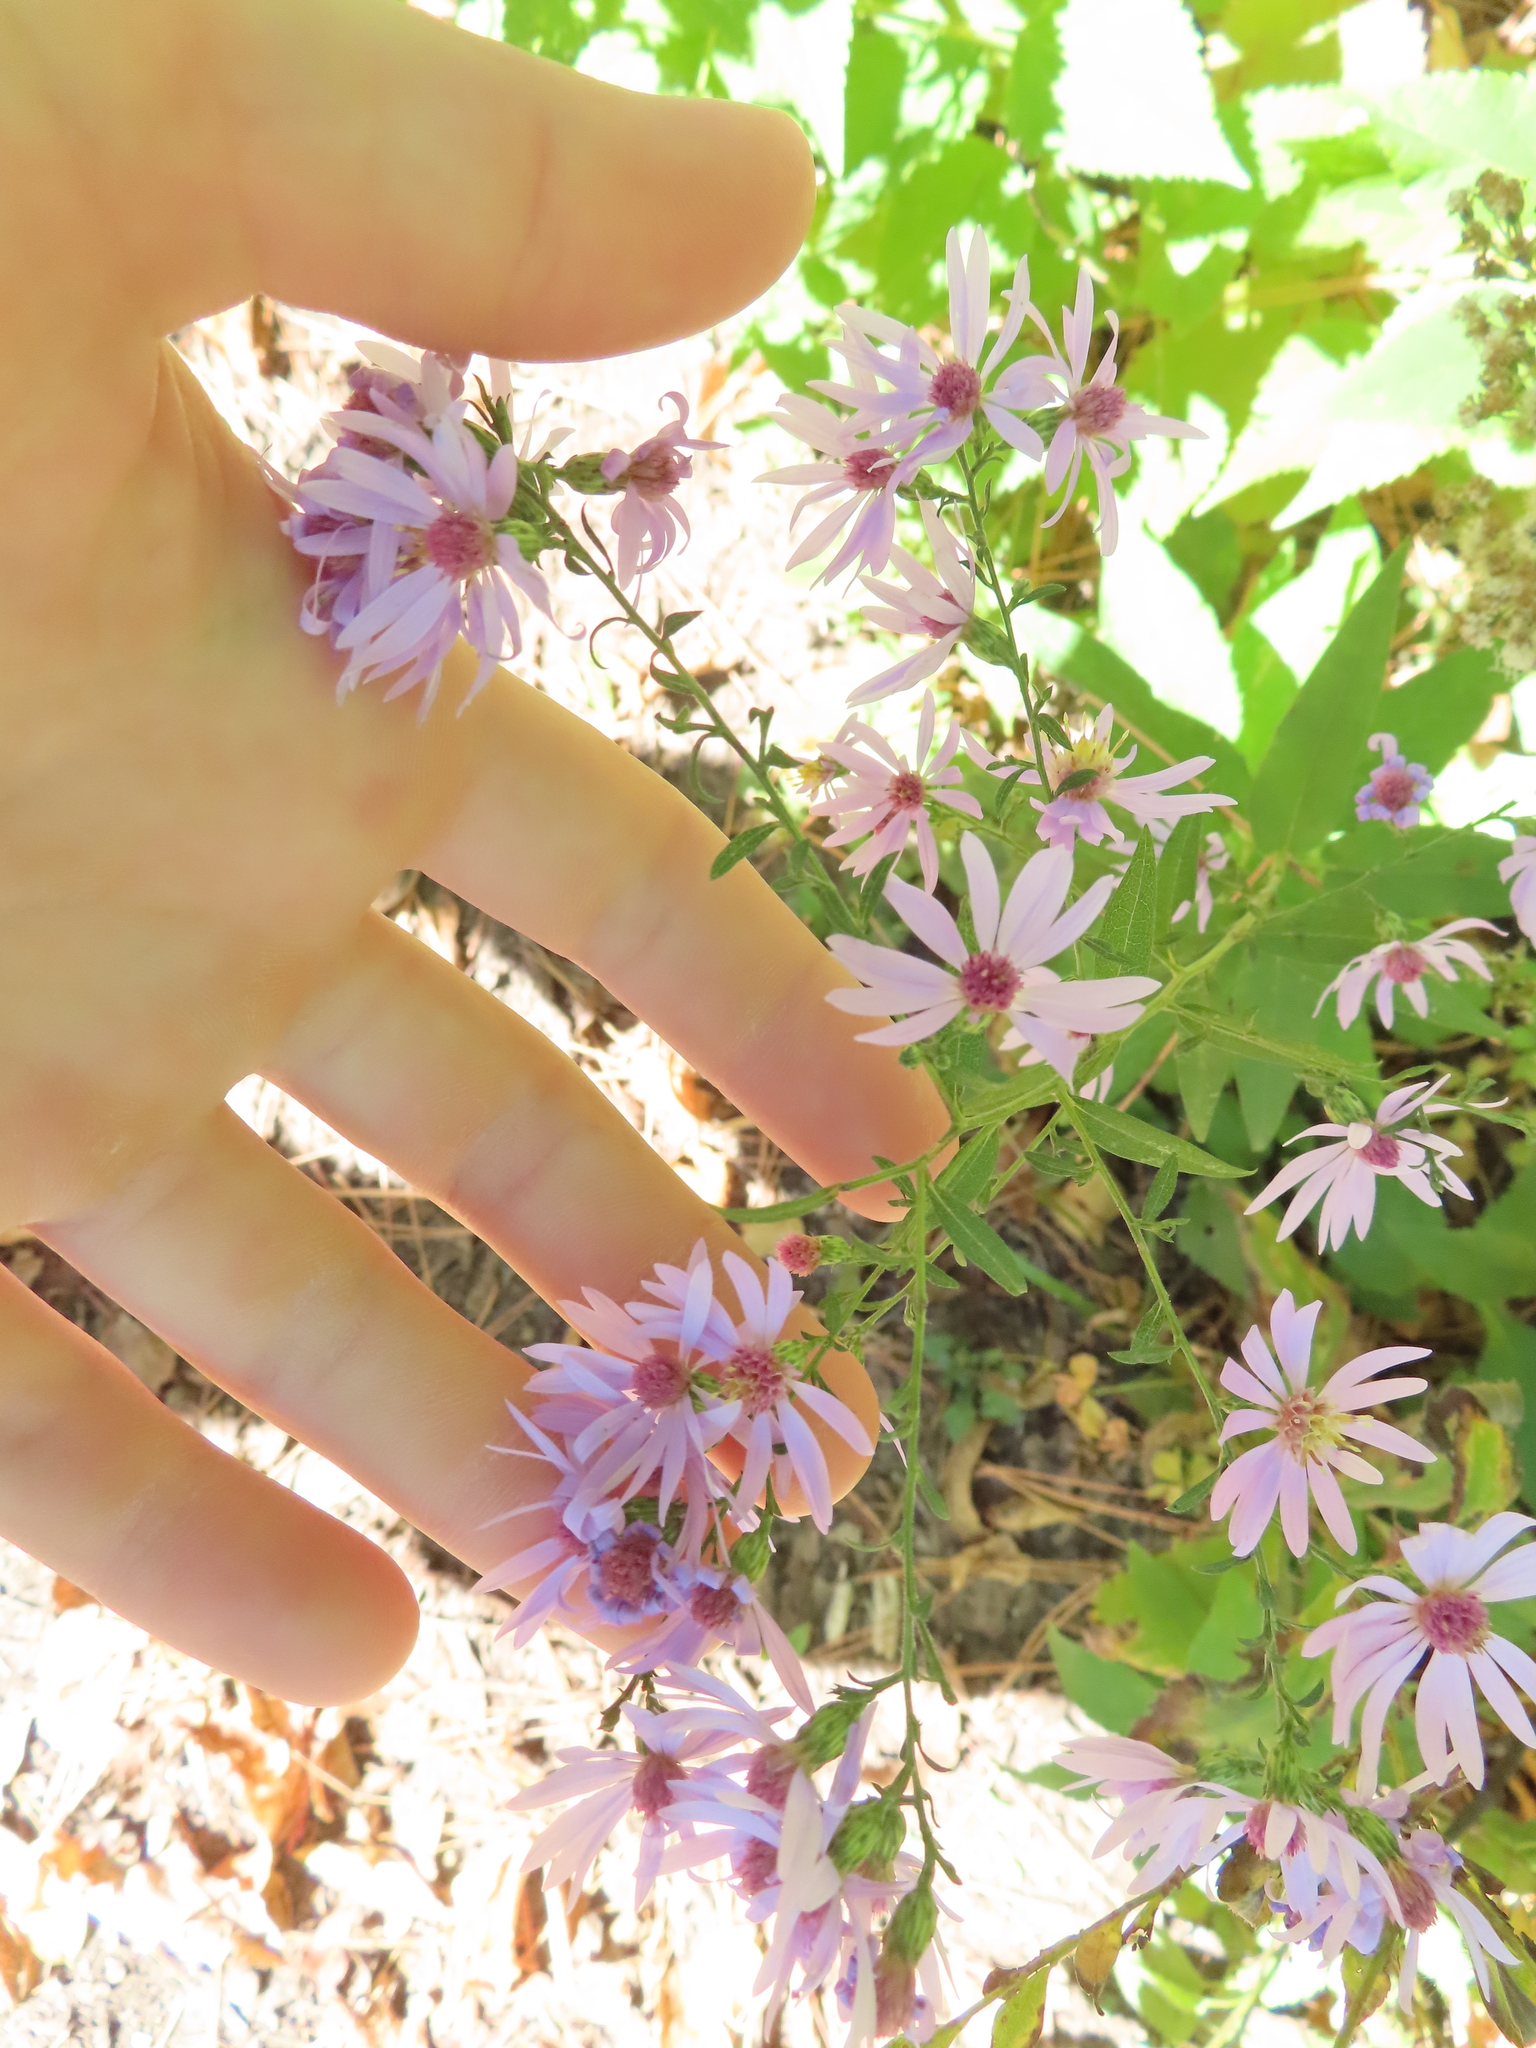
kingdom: Plantae
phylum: Tracheophyta
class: Magnoliopsida
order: Asterales
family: Asteraceae
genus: Symphyotrichum
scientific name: Symphyotrichum shortii
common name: Short's aster
